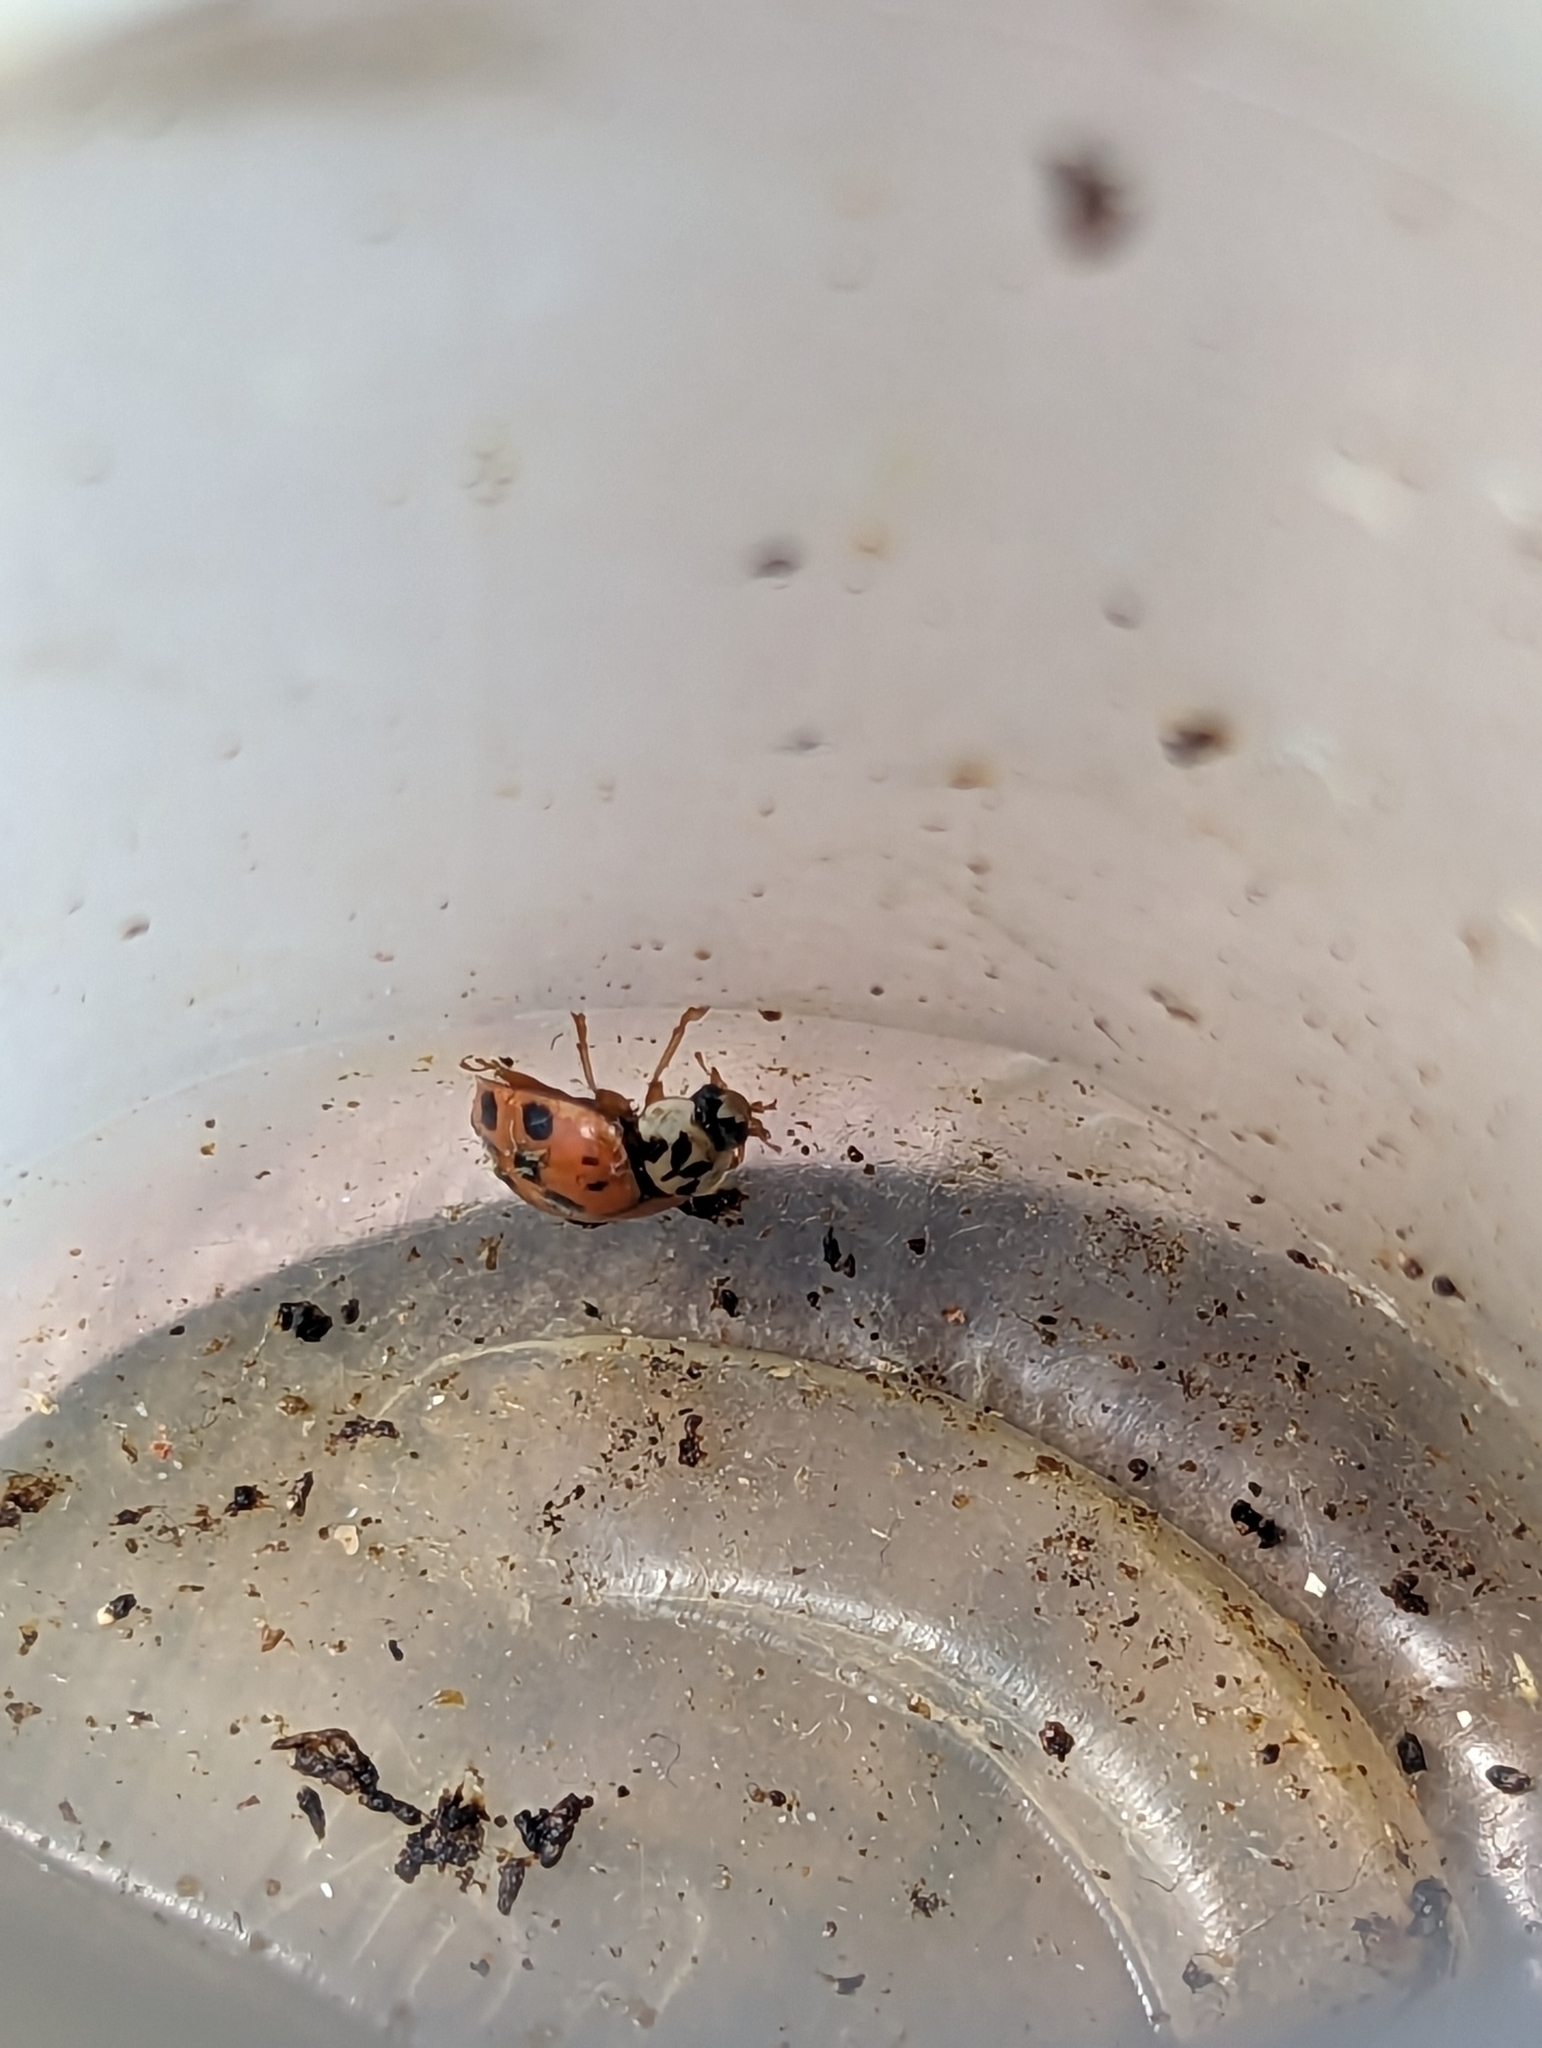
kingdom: Fungi
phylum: Ascomycota
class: Laboulbeniomycetes
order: Laboulbeniales
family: Laboulbeniaceae
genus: Hesperomyces
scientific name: Hesperomyces harmoniae
